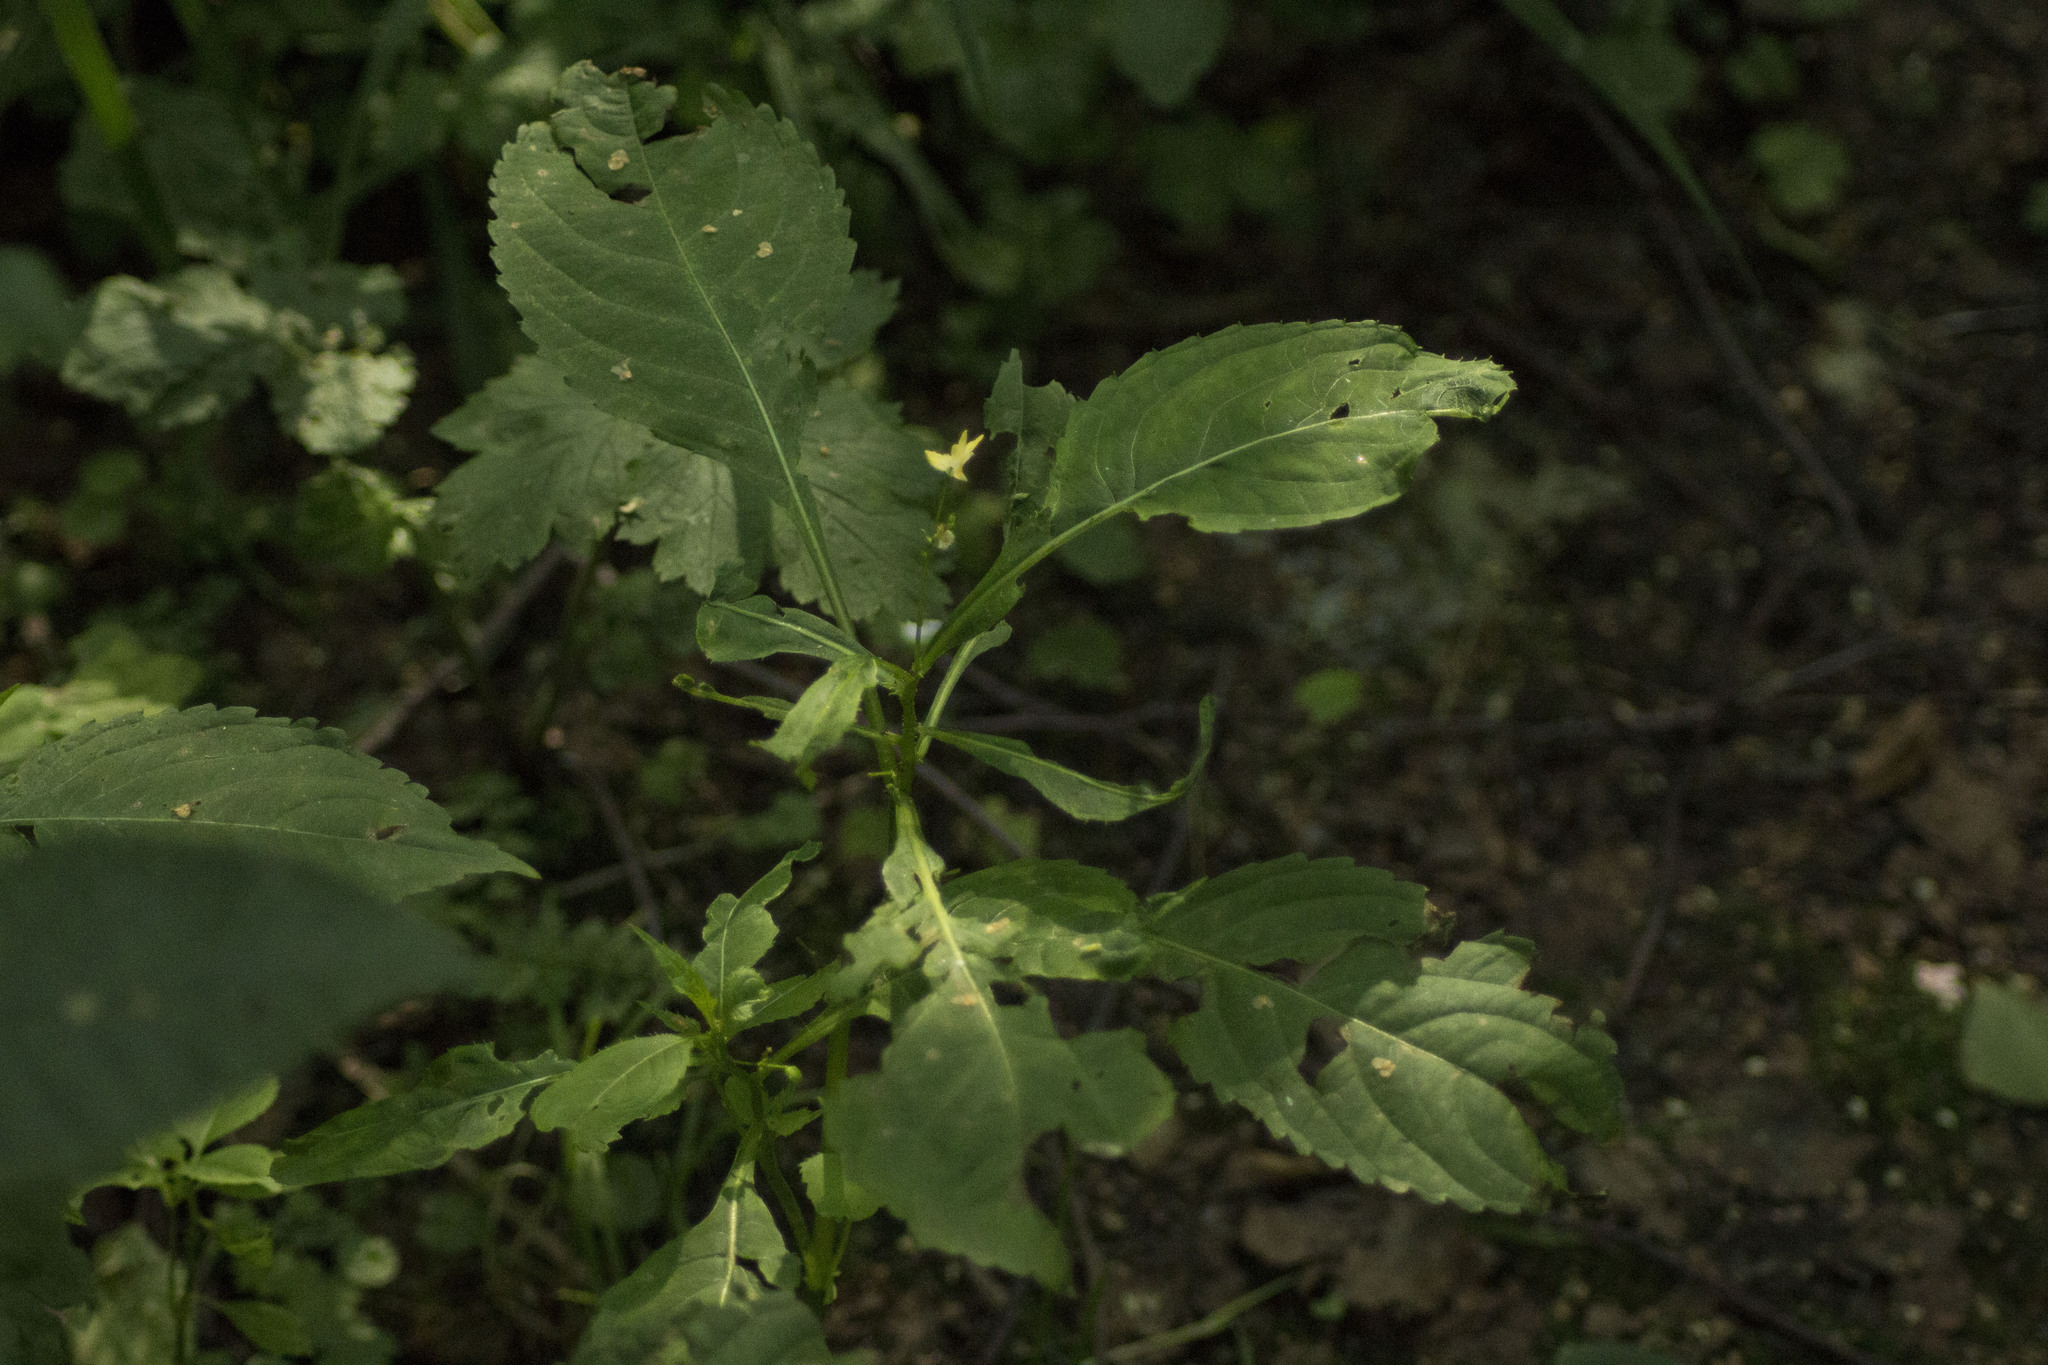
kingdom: Plantae
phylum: Tracheophyta
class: Magnoliopsida
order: Ericales
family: Balsaminaceae
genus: Impatiens
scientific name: Impatiens parviflora
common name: Small balsam
